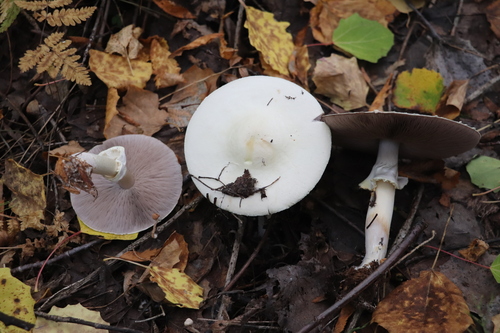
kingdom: Fungi
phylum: Basidiomycota
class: Agaricomycetes
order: Agaricales
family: Agaricaceae
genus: Agaricus
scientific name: Agaricus sylvicola
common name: Wood mushroom
